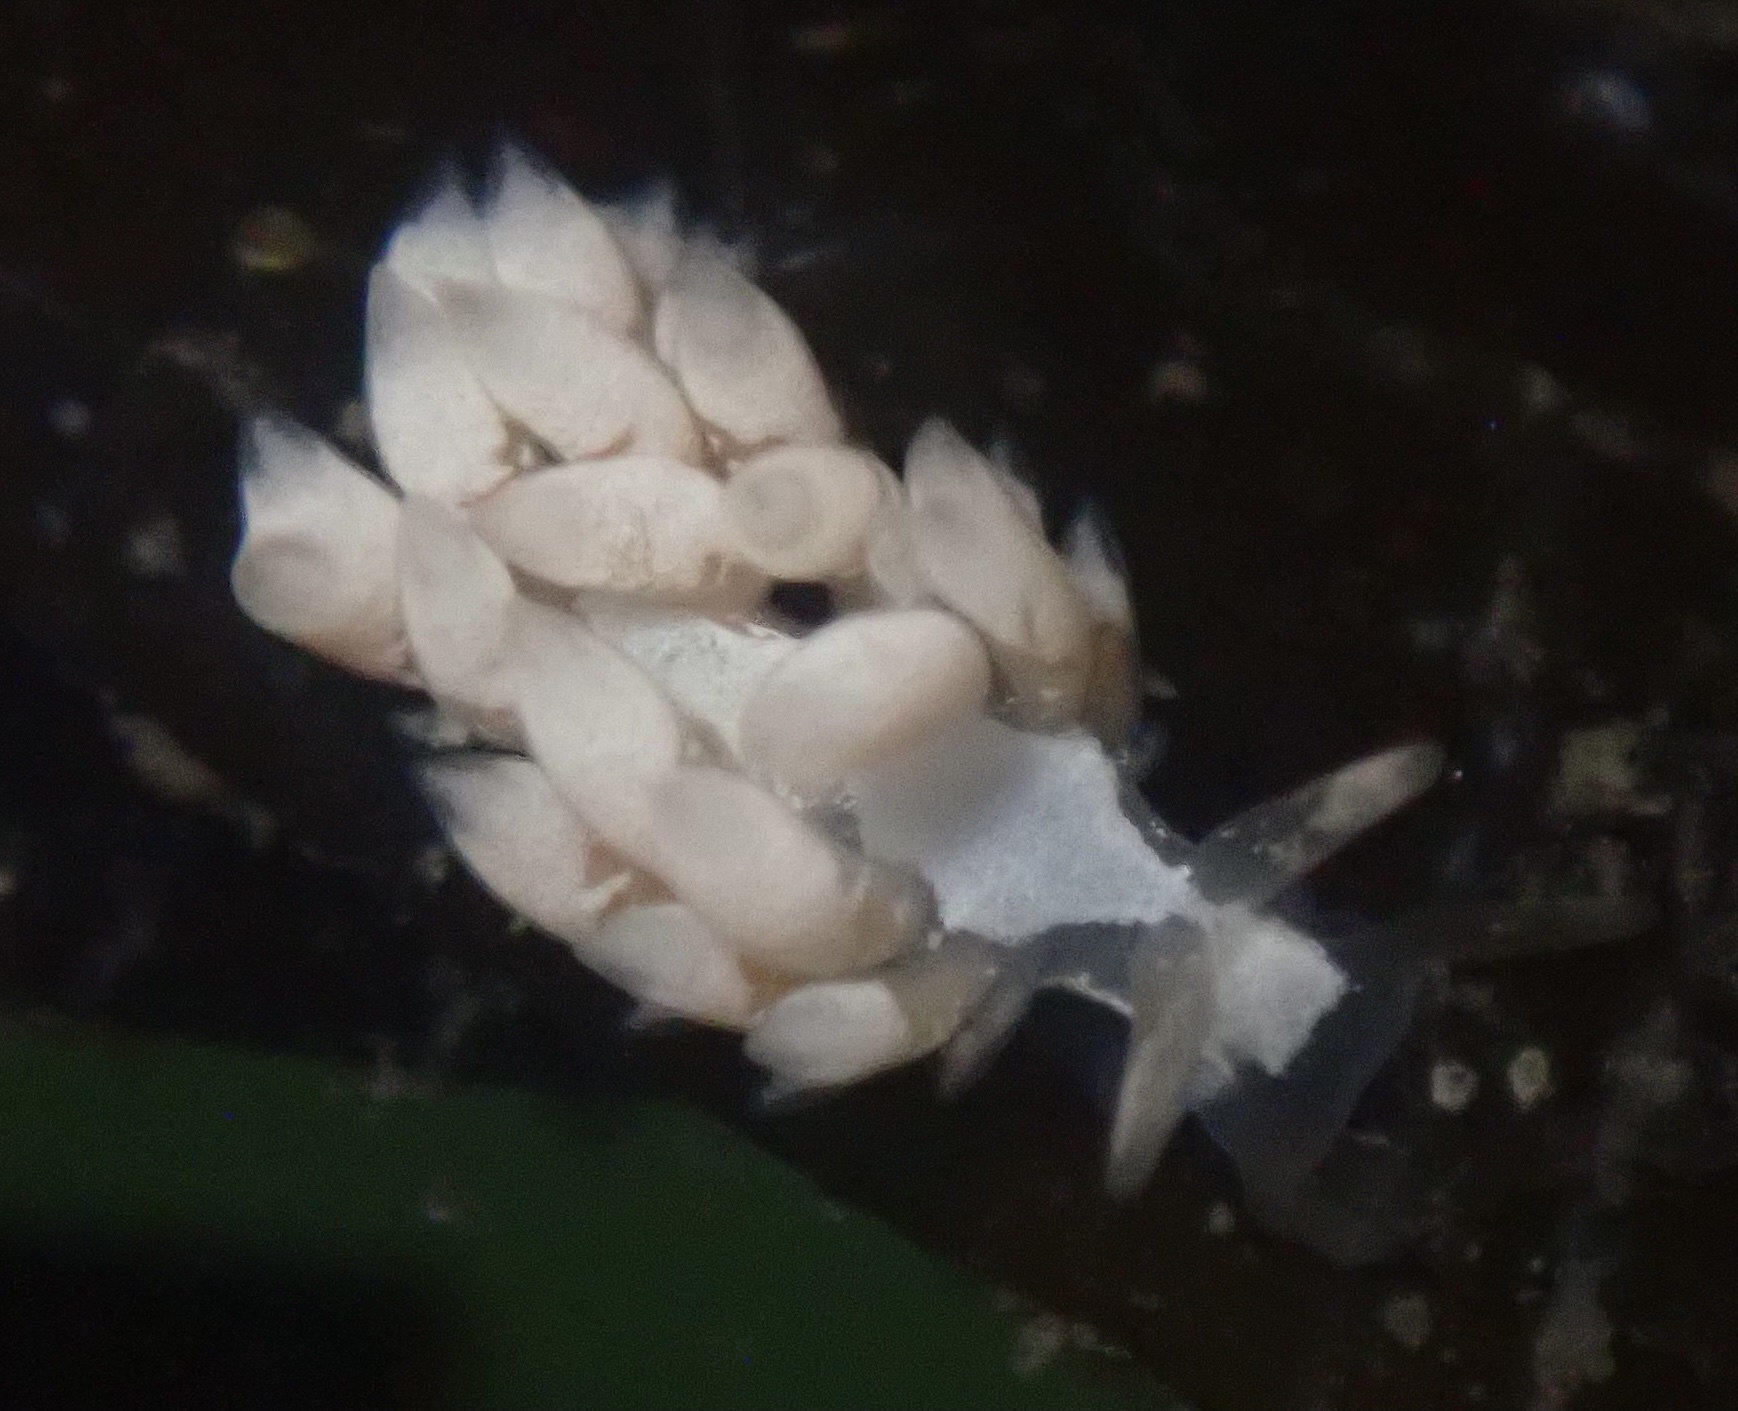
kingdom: Animalia
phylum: Mollusca
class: Gastropoda
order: Nudibranchia
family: Trinchesiidae
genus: Trinchesia
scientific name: Trinchesia albocrusta
